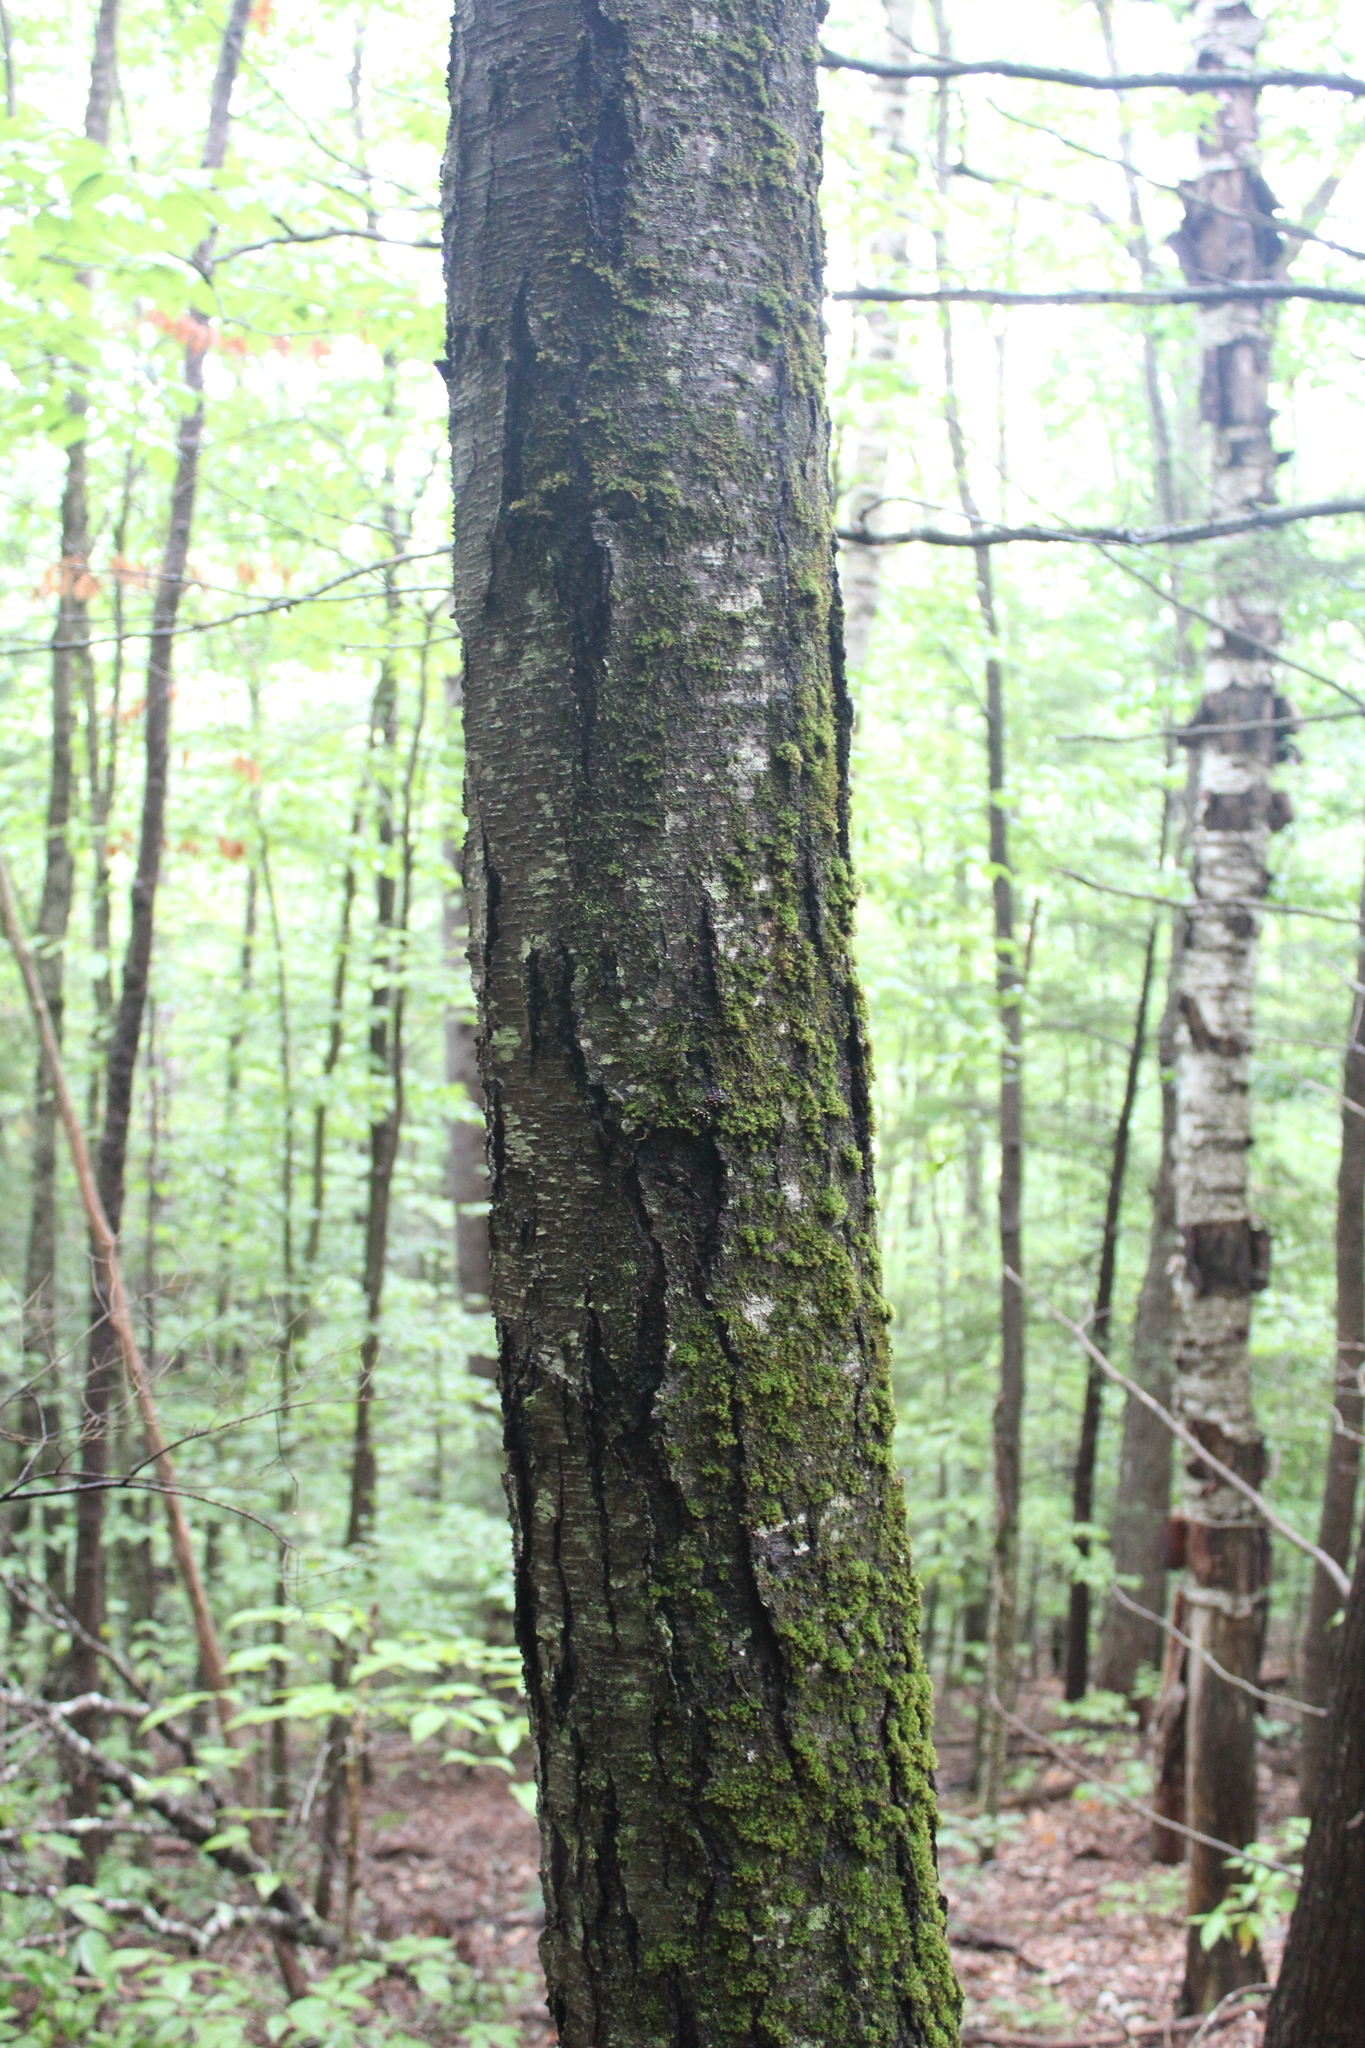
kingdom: Plantae
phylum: Tracheophyta
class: Magnoliopsida
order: Fagales
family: Betulaceae
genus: Betula
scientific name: Betula lenta
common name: Black birch
